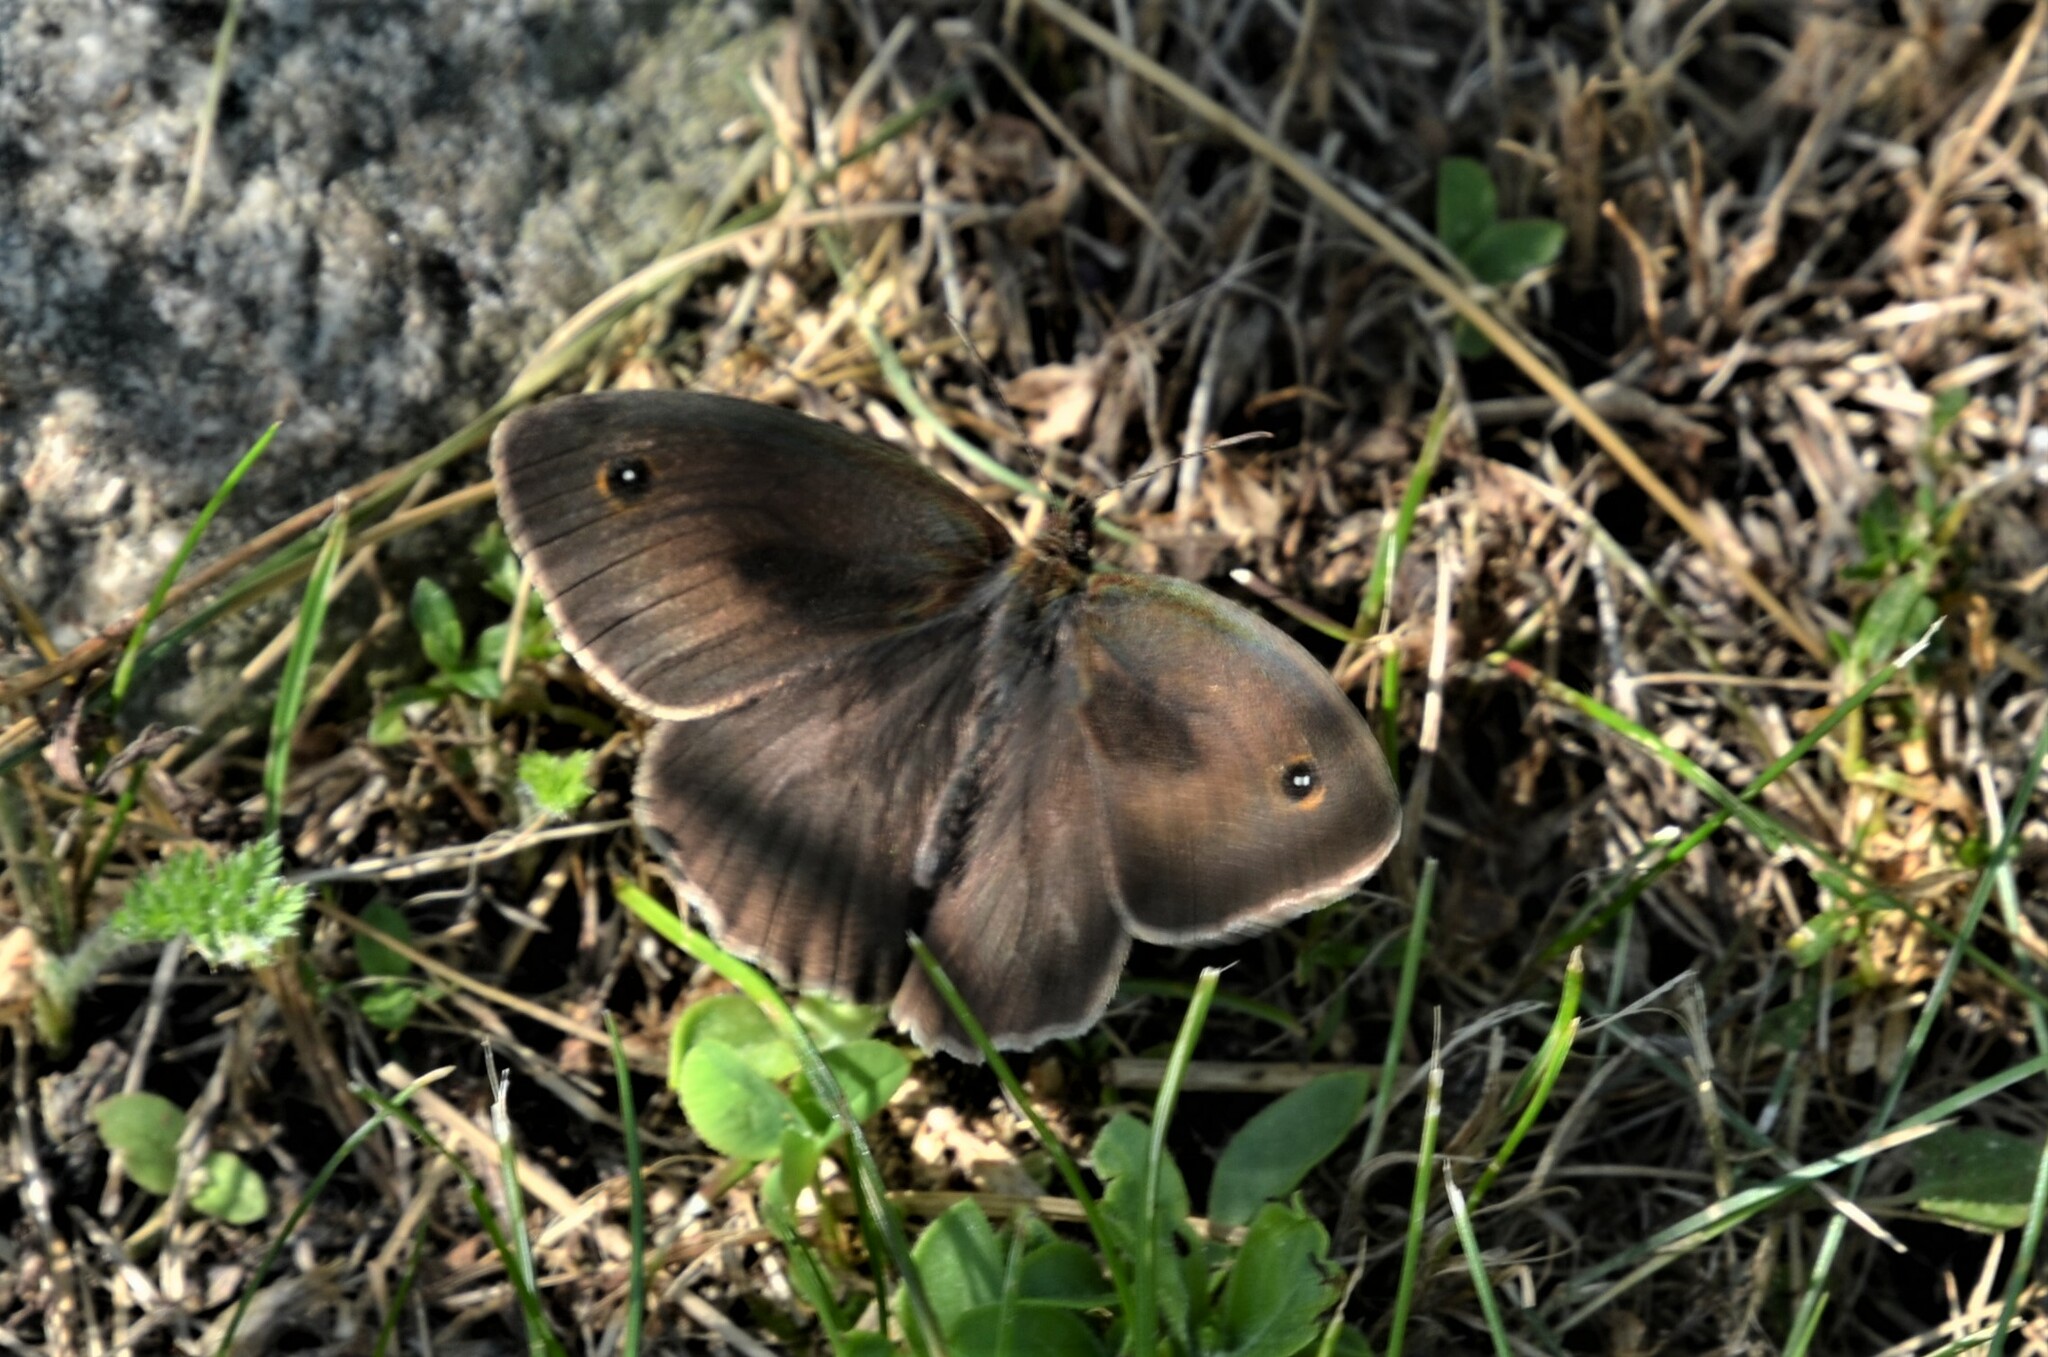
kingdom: Animalia
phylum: Arthropoda
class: Insecta
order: Lepidoptera
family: Nymphalidae
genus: Maniola
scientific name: Maniola jurtina
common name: Meadow brown
